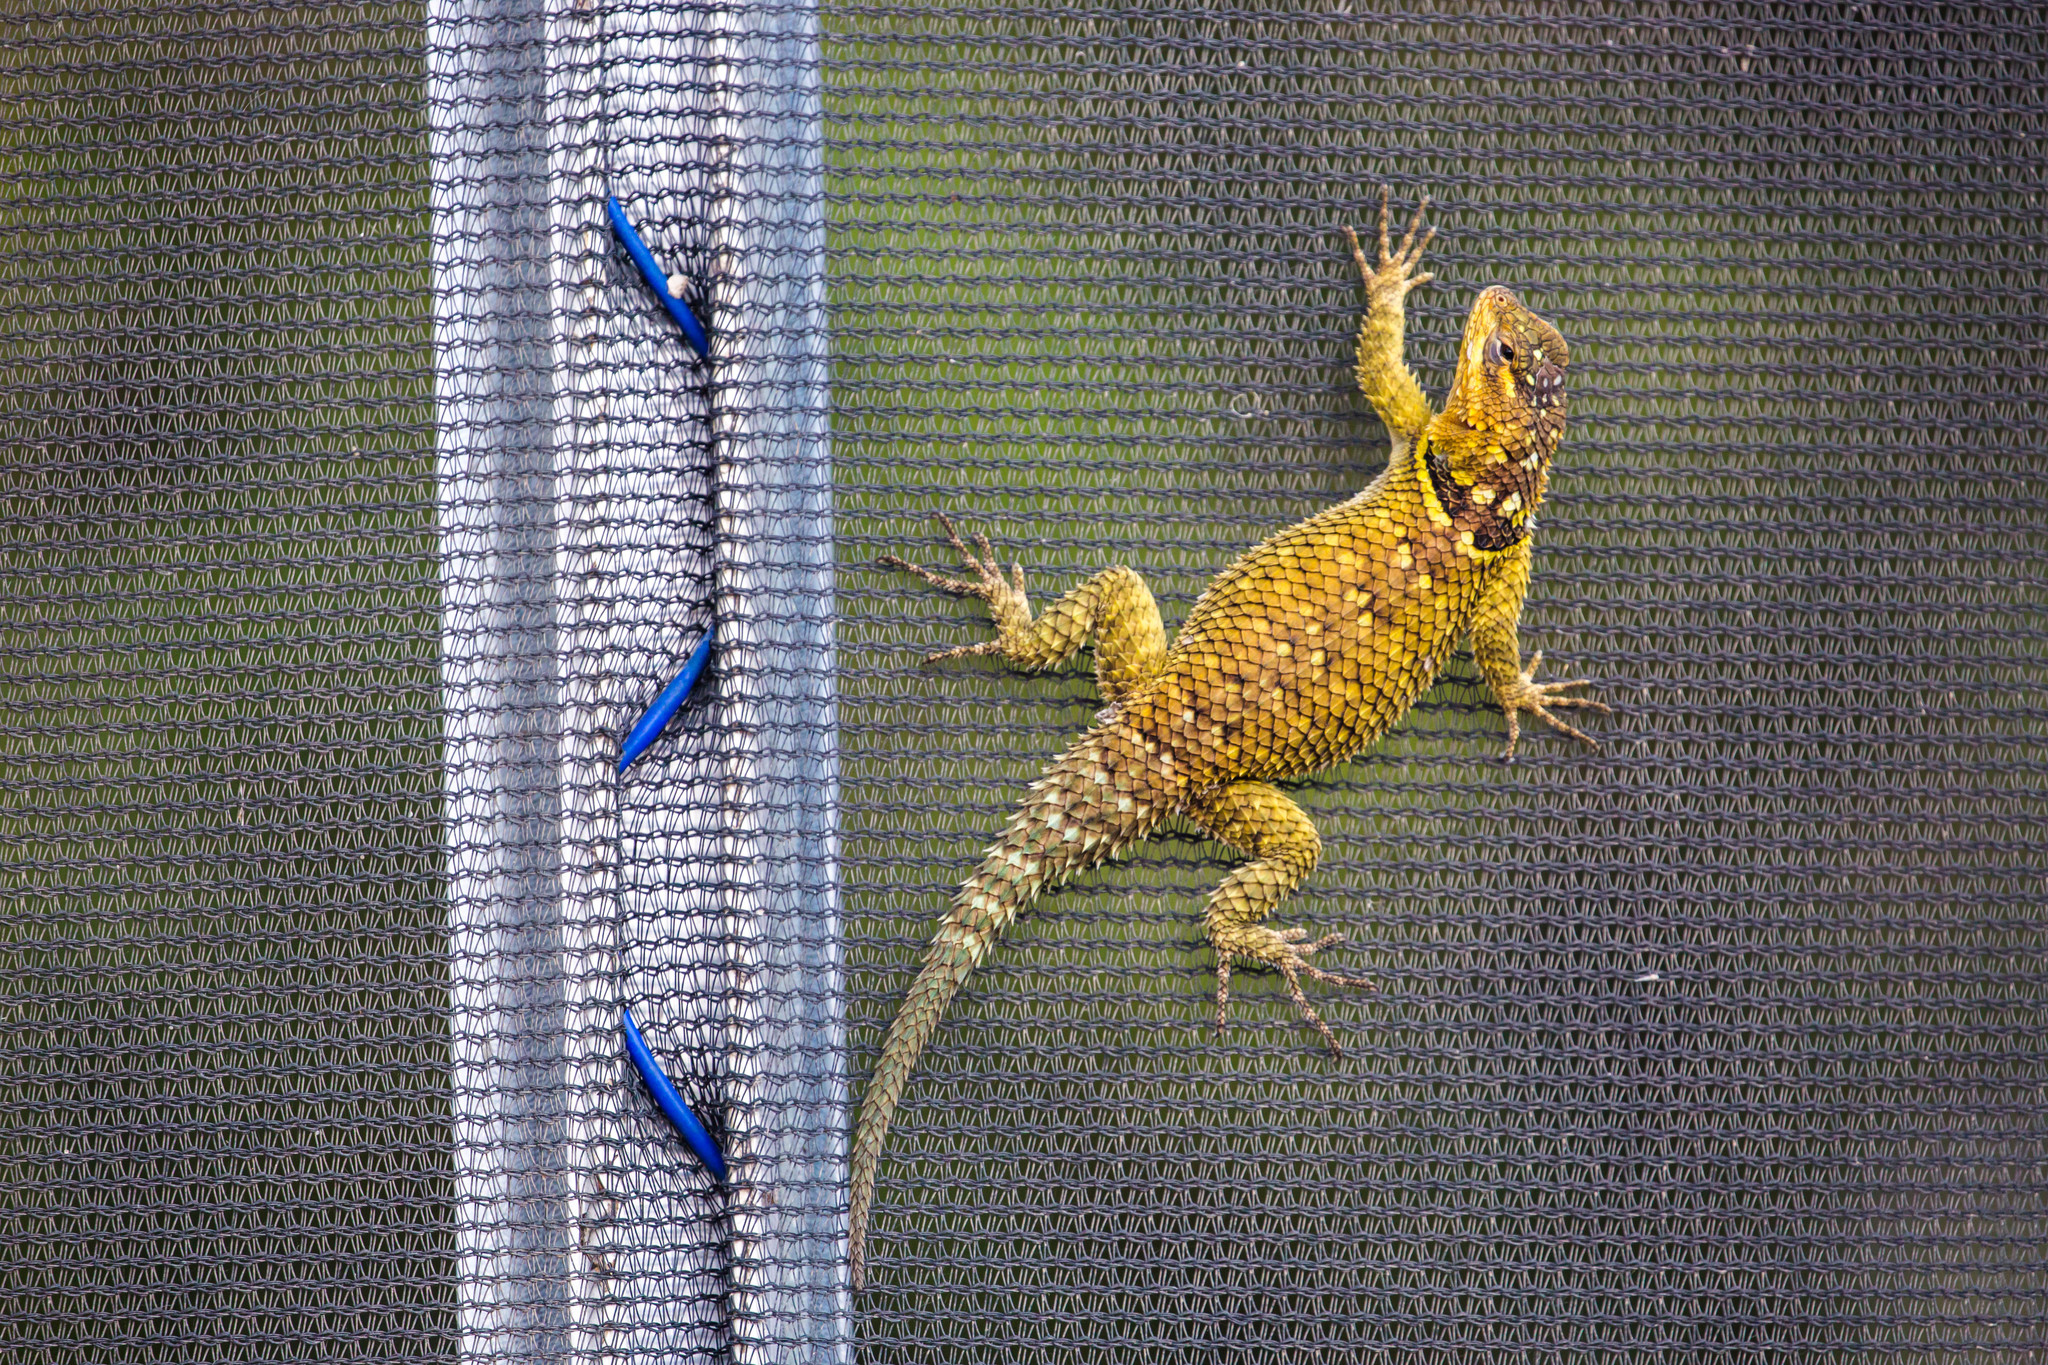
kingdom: Animalia
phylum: Chordata
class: Squamata
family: Phrynosomatidae
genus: Sceloporus
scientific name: Sceloporus cyanogenys
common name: Blue spiny lizard
